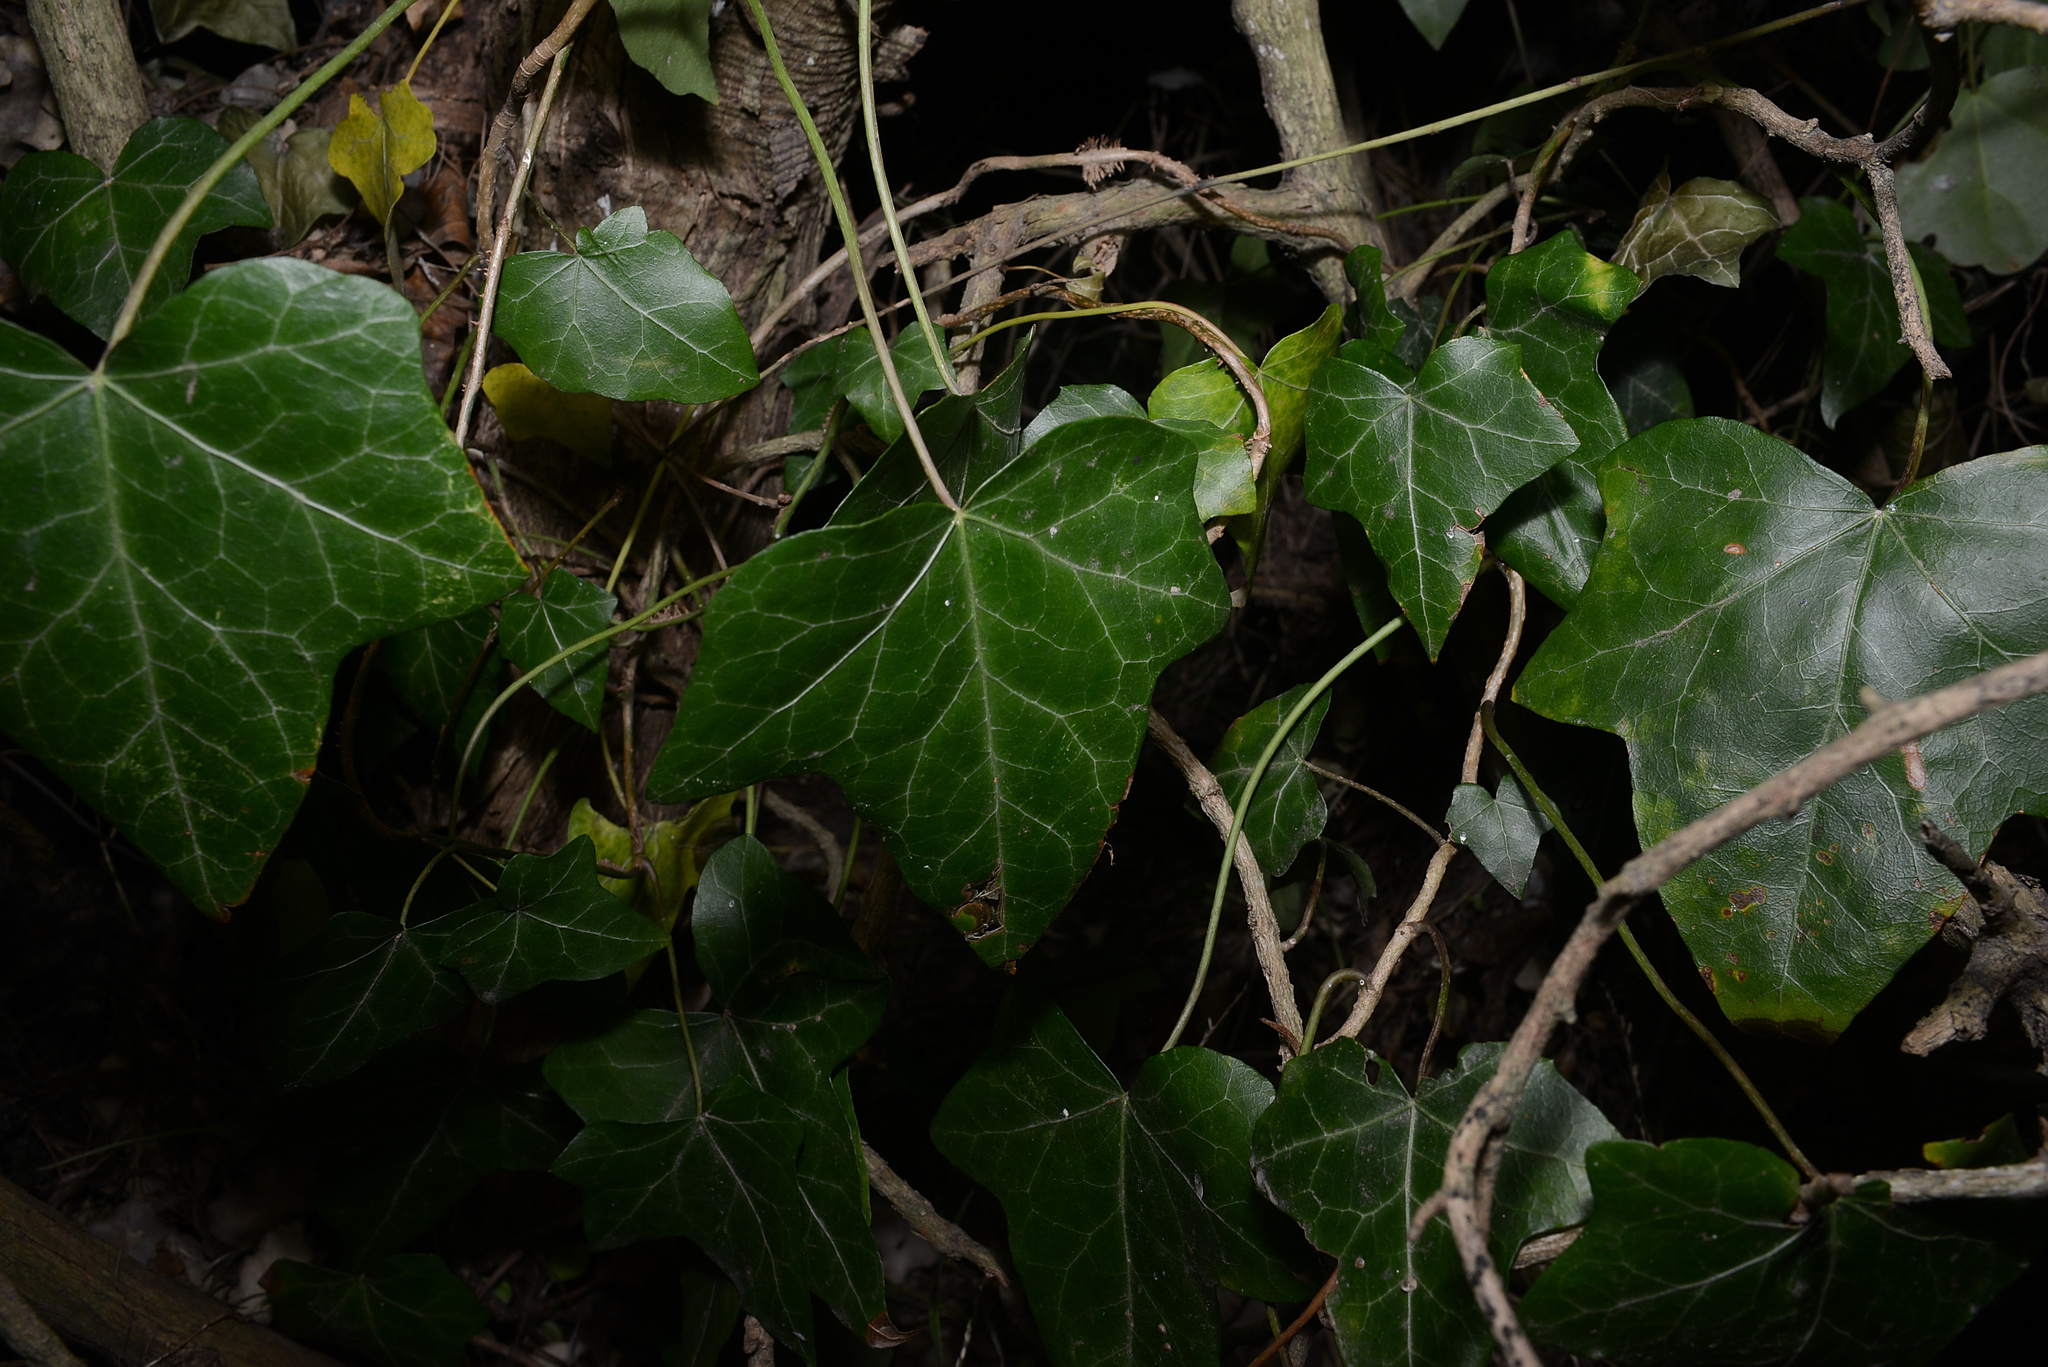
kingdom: Plantae
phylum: Tracheophyta
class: Magnoliopsida
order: Apiales
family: Araliaceae
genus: Hedera
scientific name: Hedera helix
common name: Ivy
